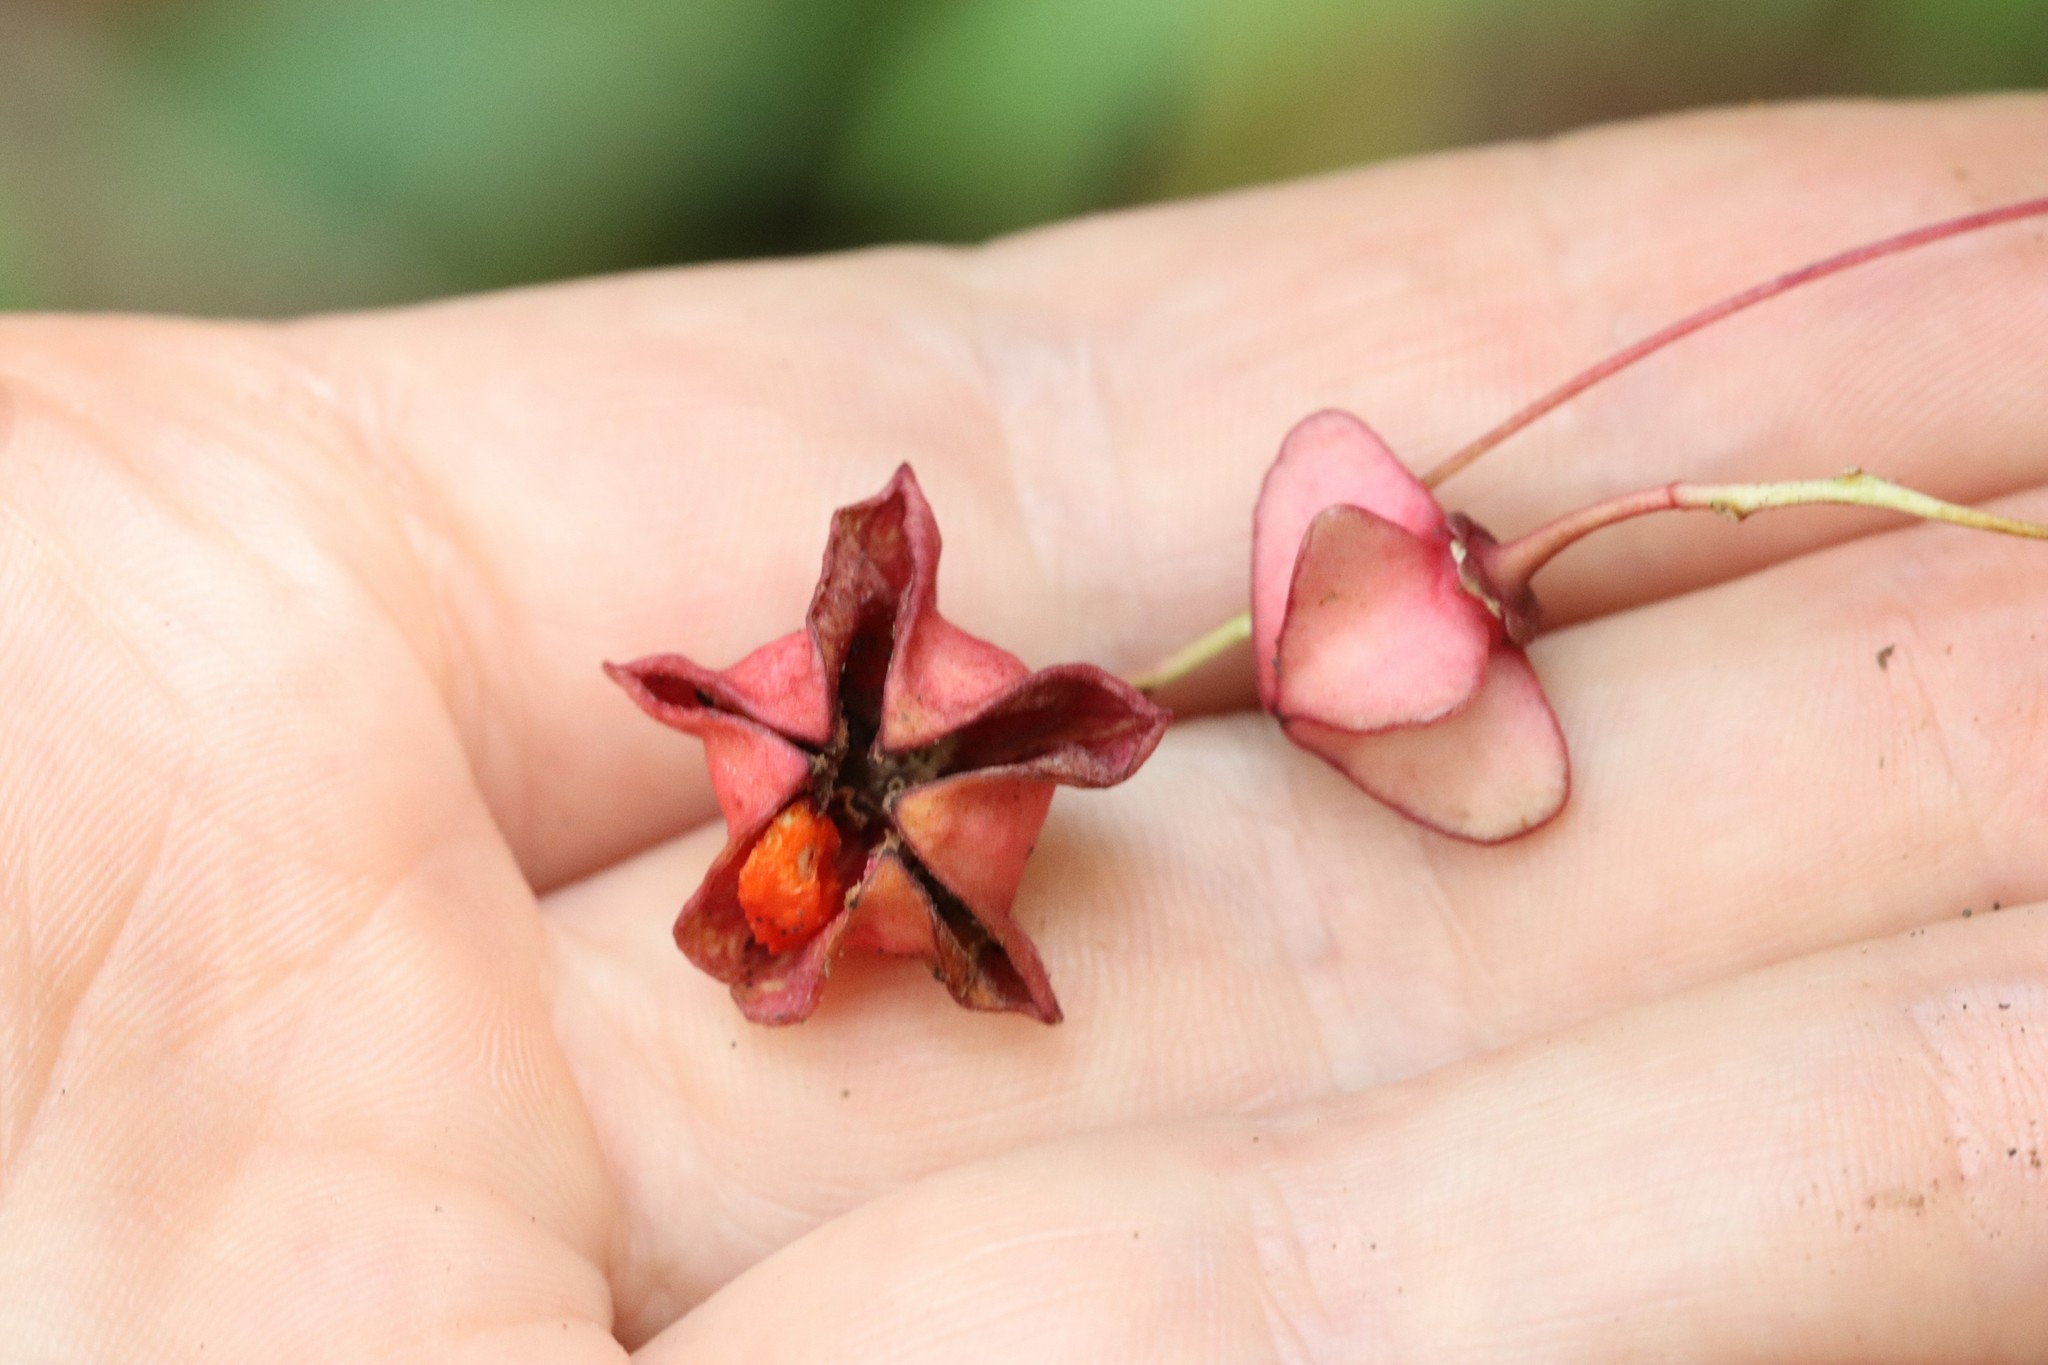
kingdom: Plantae
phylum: Tracheophyta
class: Magnoliopsida
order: Celastrales
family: Celastraceae
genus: Euonymus
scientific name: Euonymus sachalinensis
